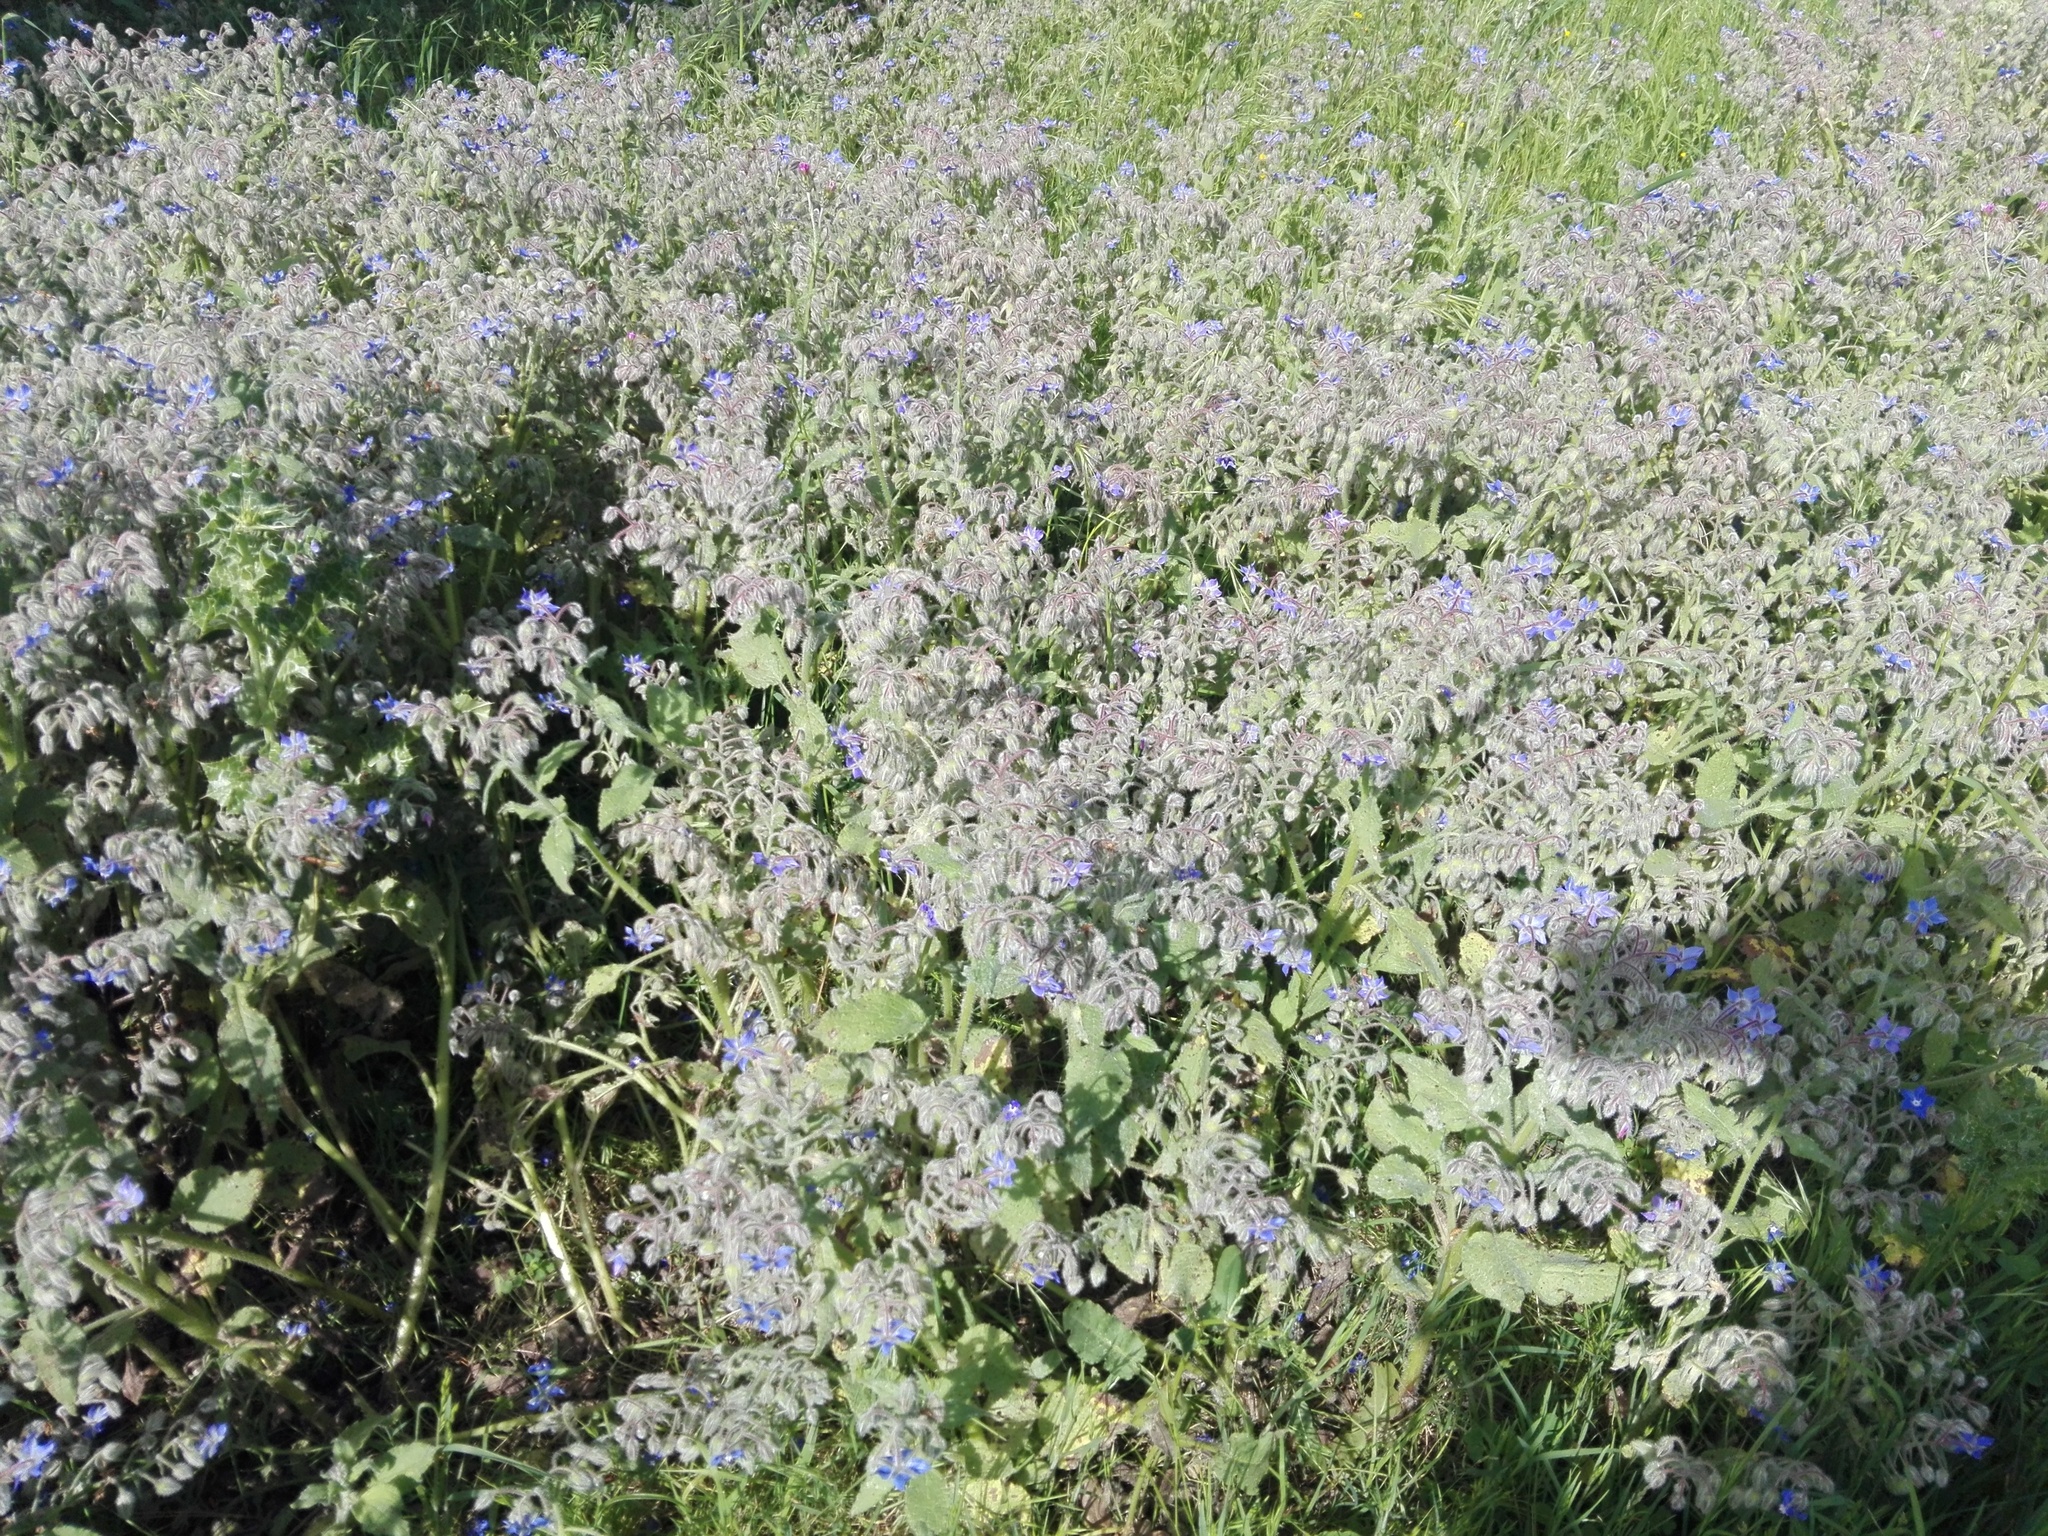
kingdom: Plantae
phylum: Tracheophyta
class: Magnoliopsida
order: Boraginales
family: Boraginaceae
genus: Borago
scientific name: Borago officinalis
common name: Borage
